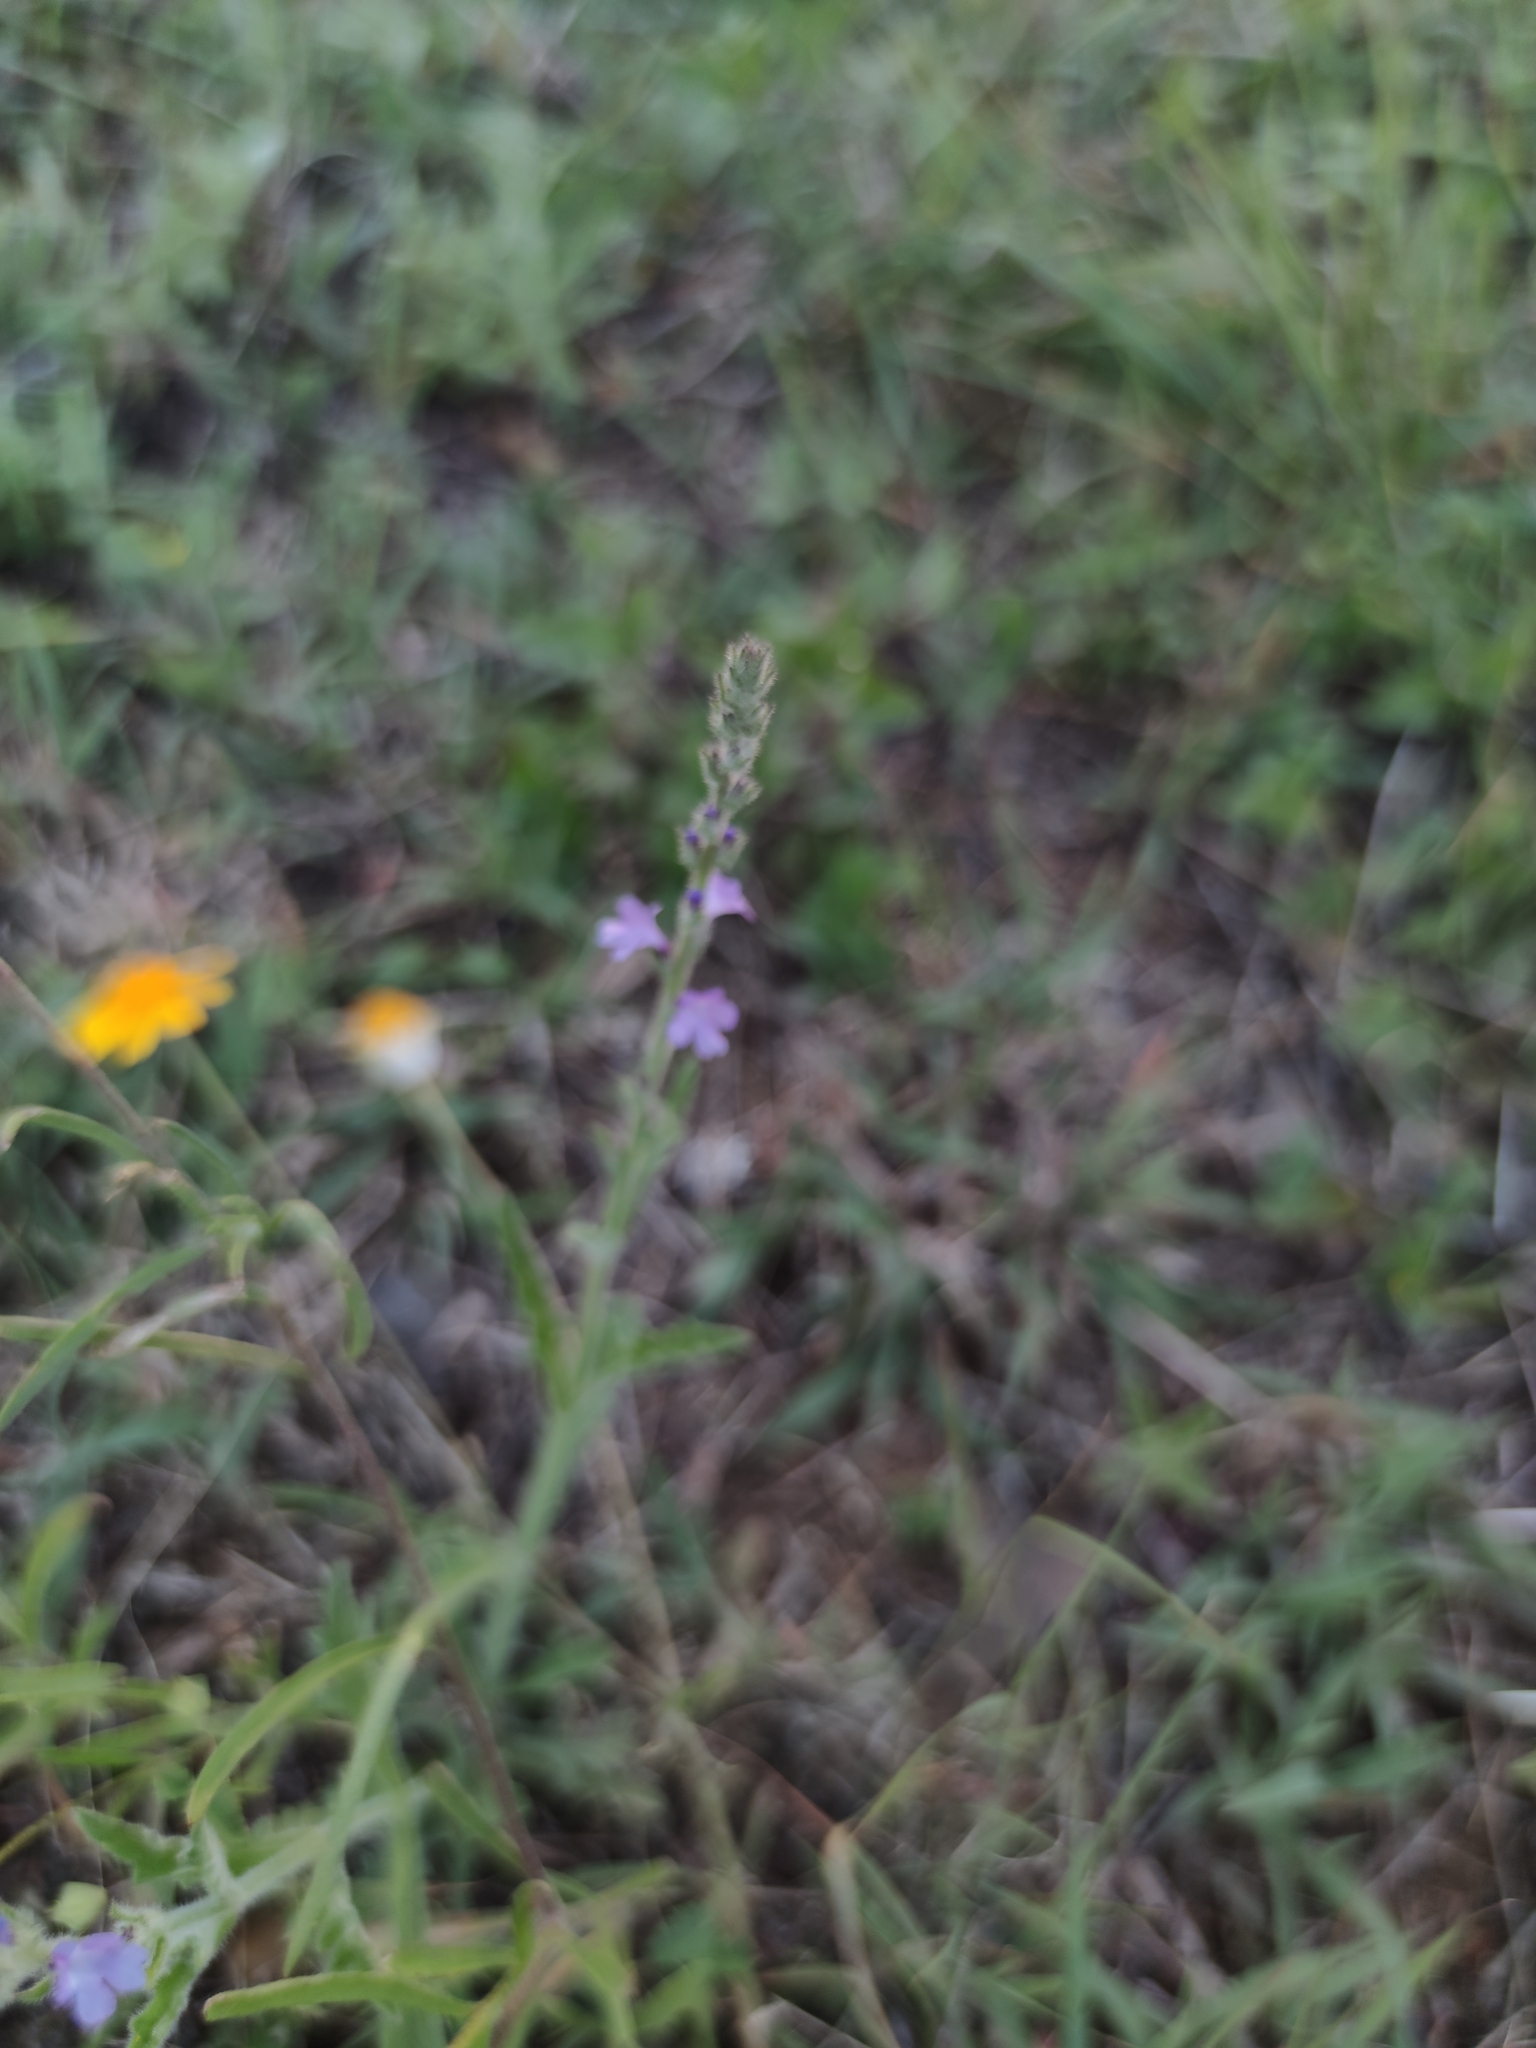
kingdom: Plantae
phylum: Tracheophyta
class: Magnoliopsida
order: Lamiales
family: Verbenaceae
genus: Verbena
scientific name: Verbena canescens
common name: Gray vervain
